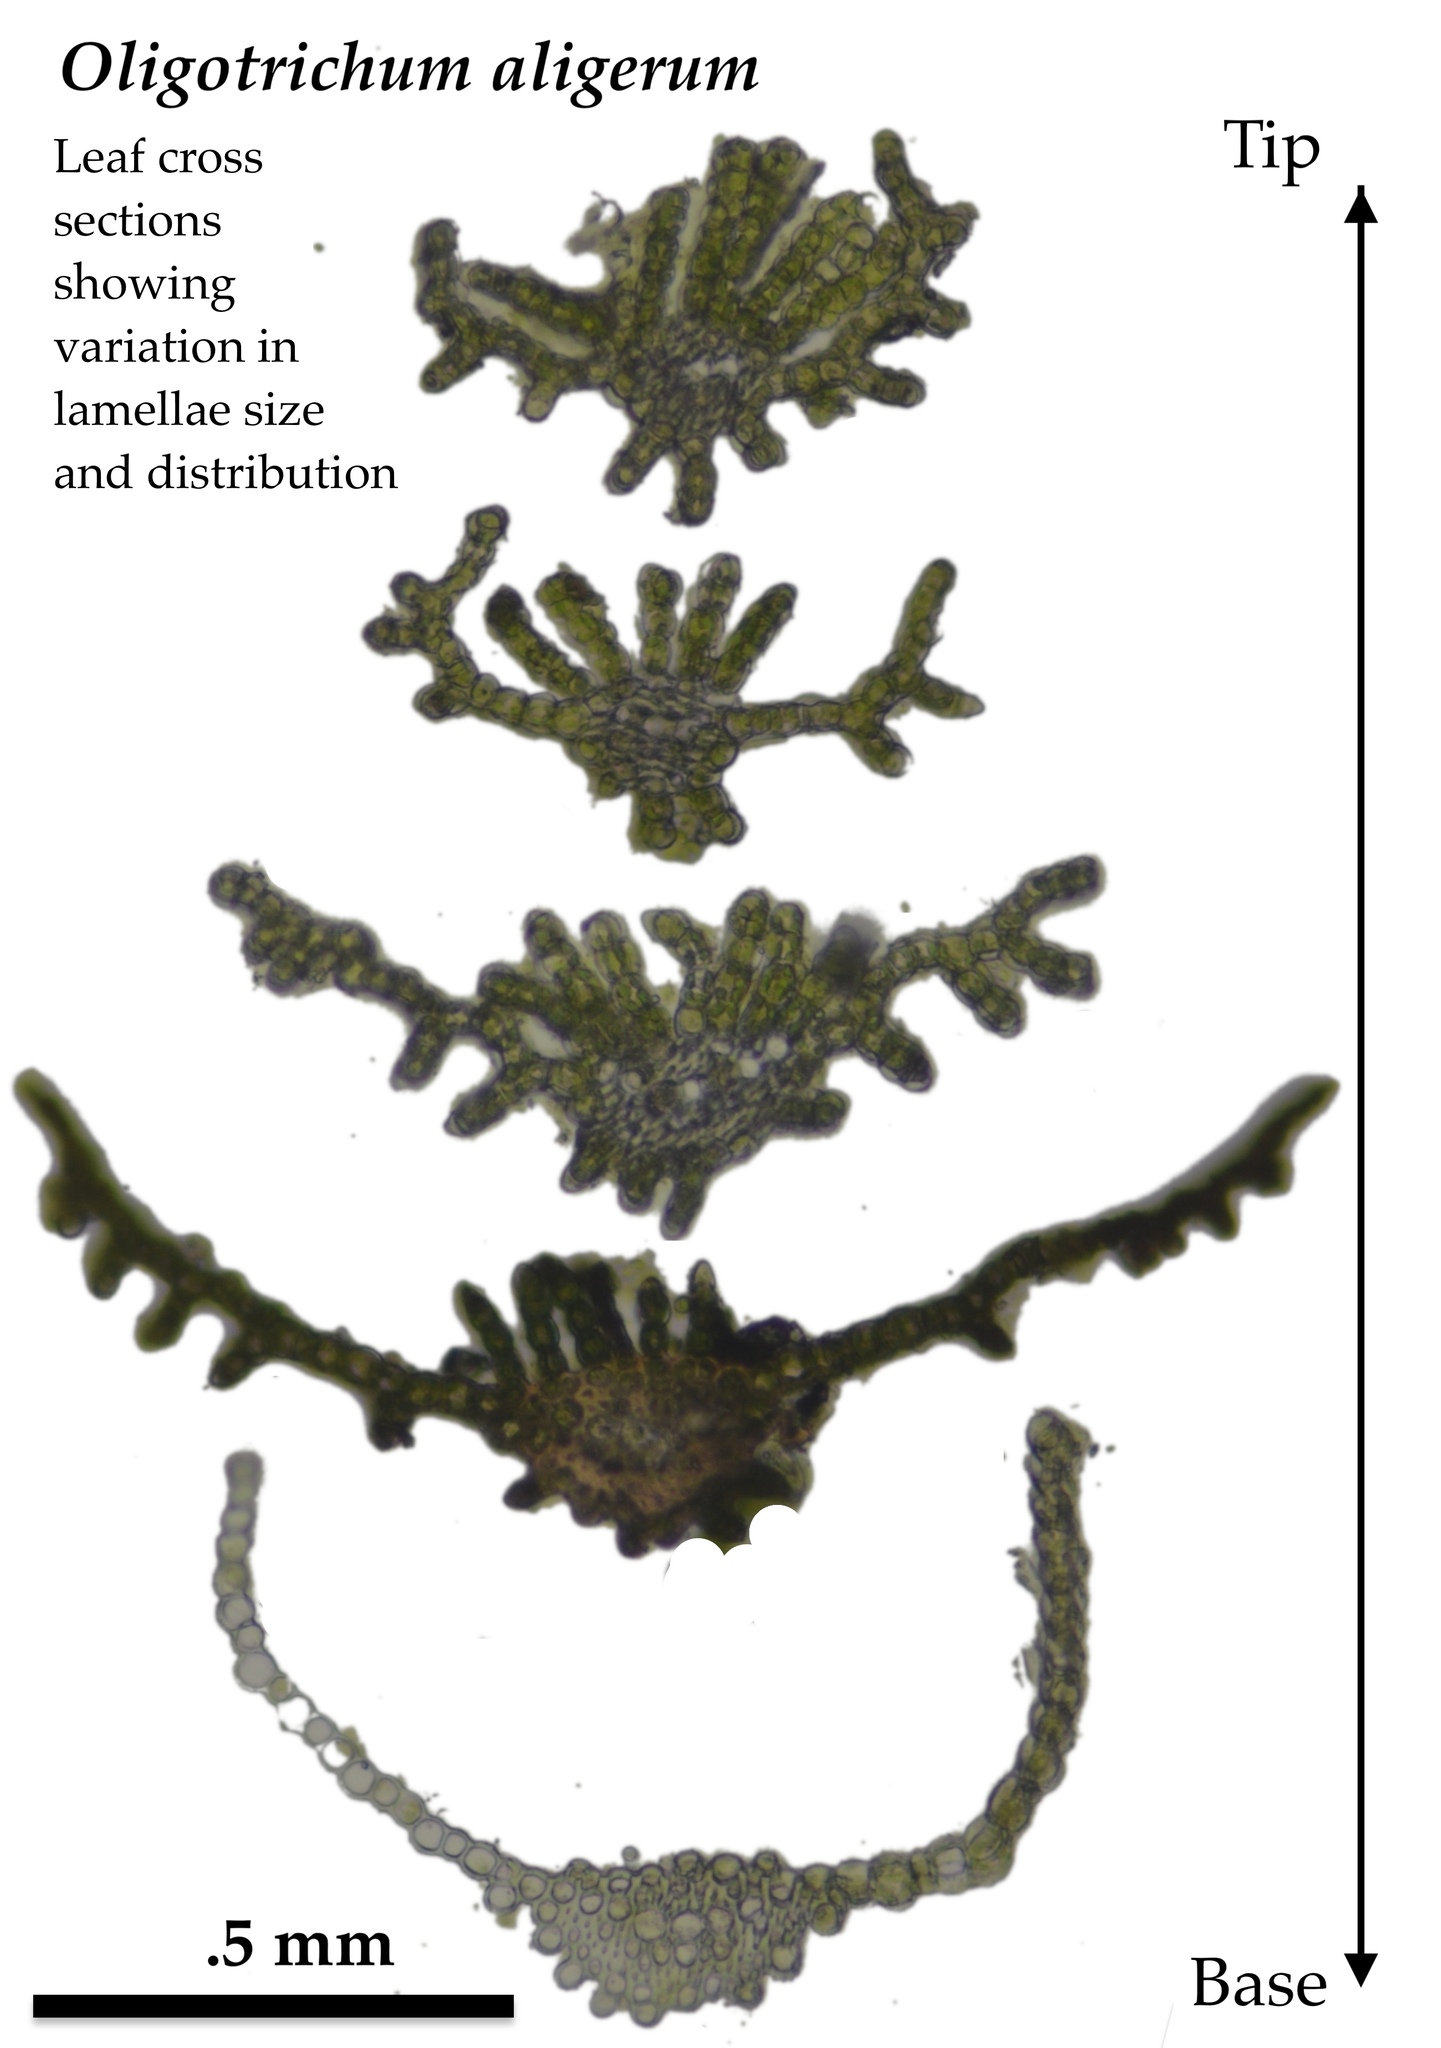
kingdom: Plantae
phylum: Bryophyta
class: Polytrichopsida
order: Polytrichales
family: Polytrichaceae
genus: Oligotrichum
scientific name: Oligotrichum aligerum
